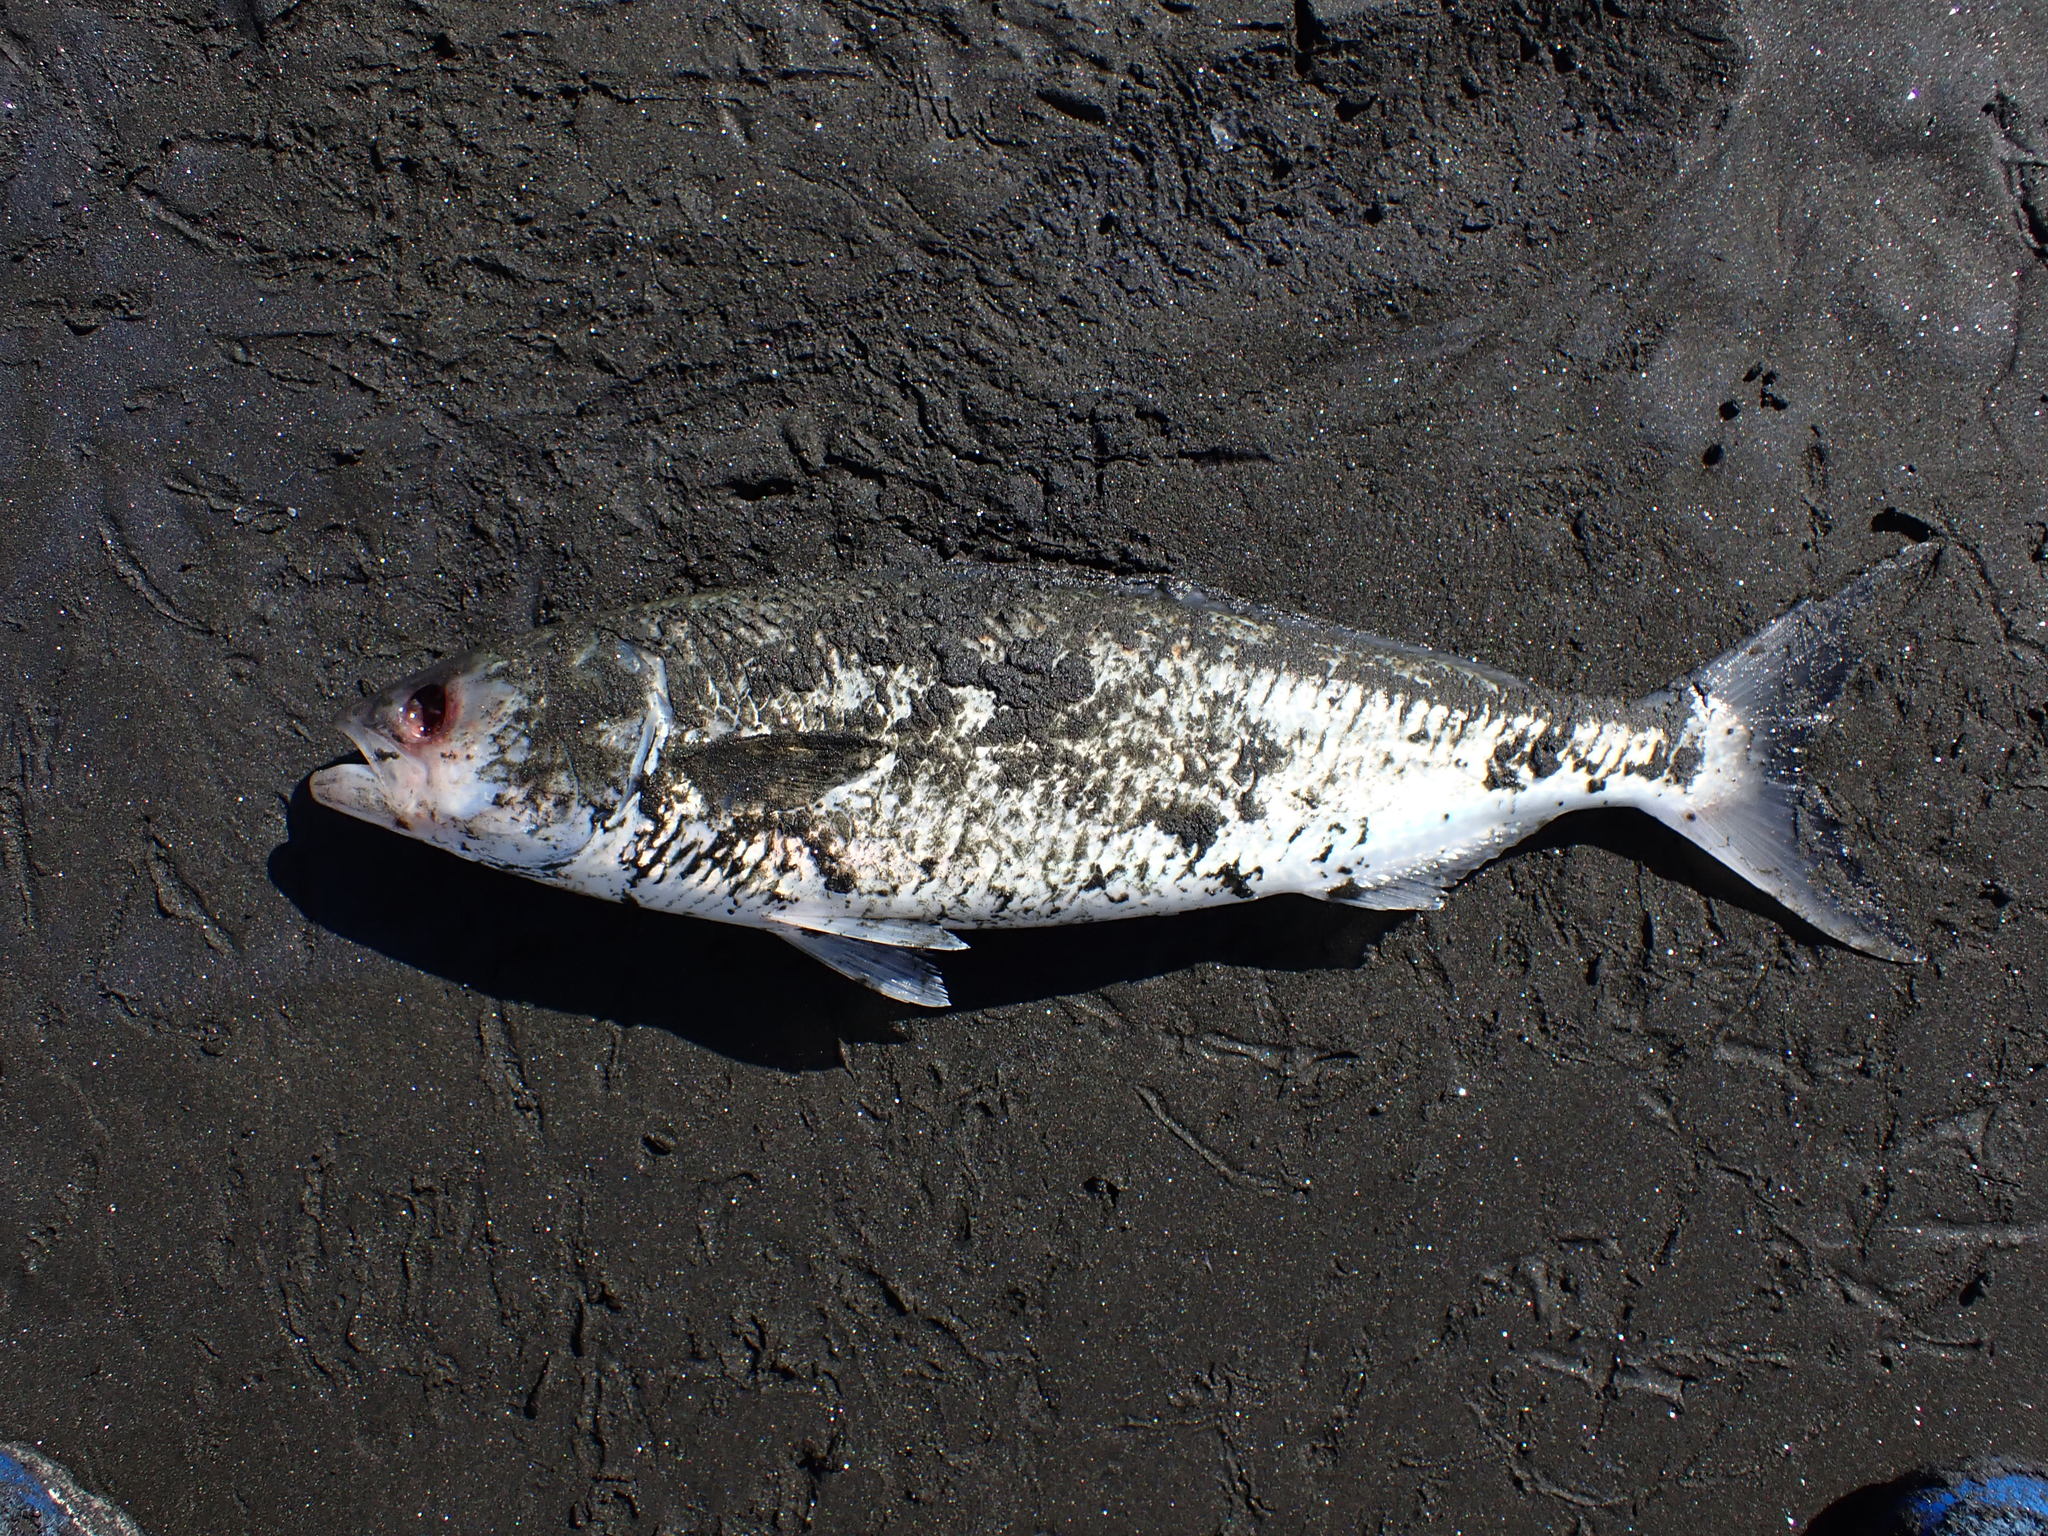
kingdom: Animalia
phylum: Chordata
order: Perciformes
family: Arripidae
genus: Arripis
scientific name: Arripis trutta
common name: Kahawai
